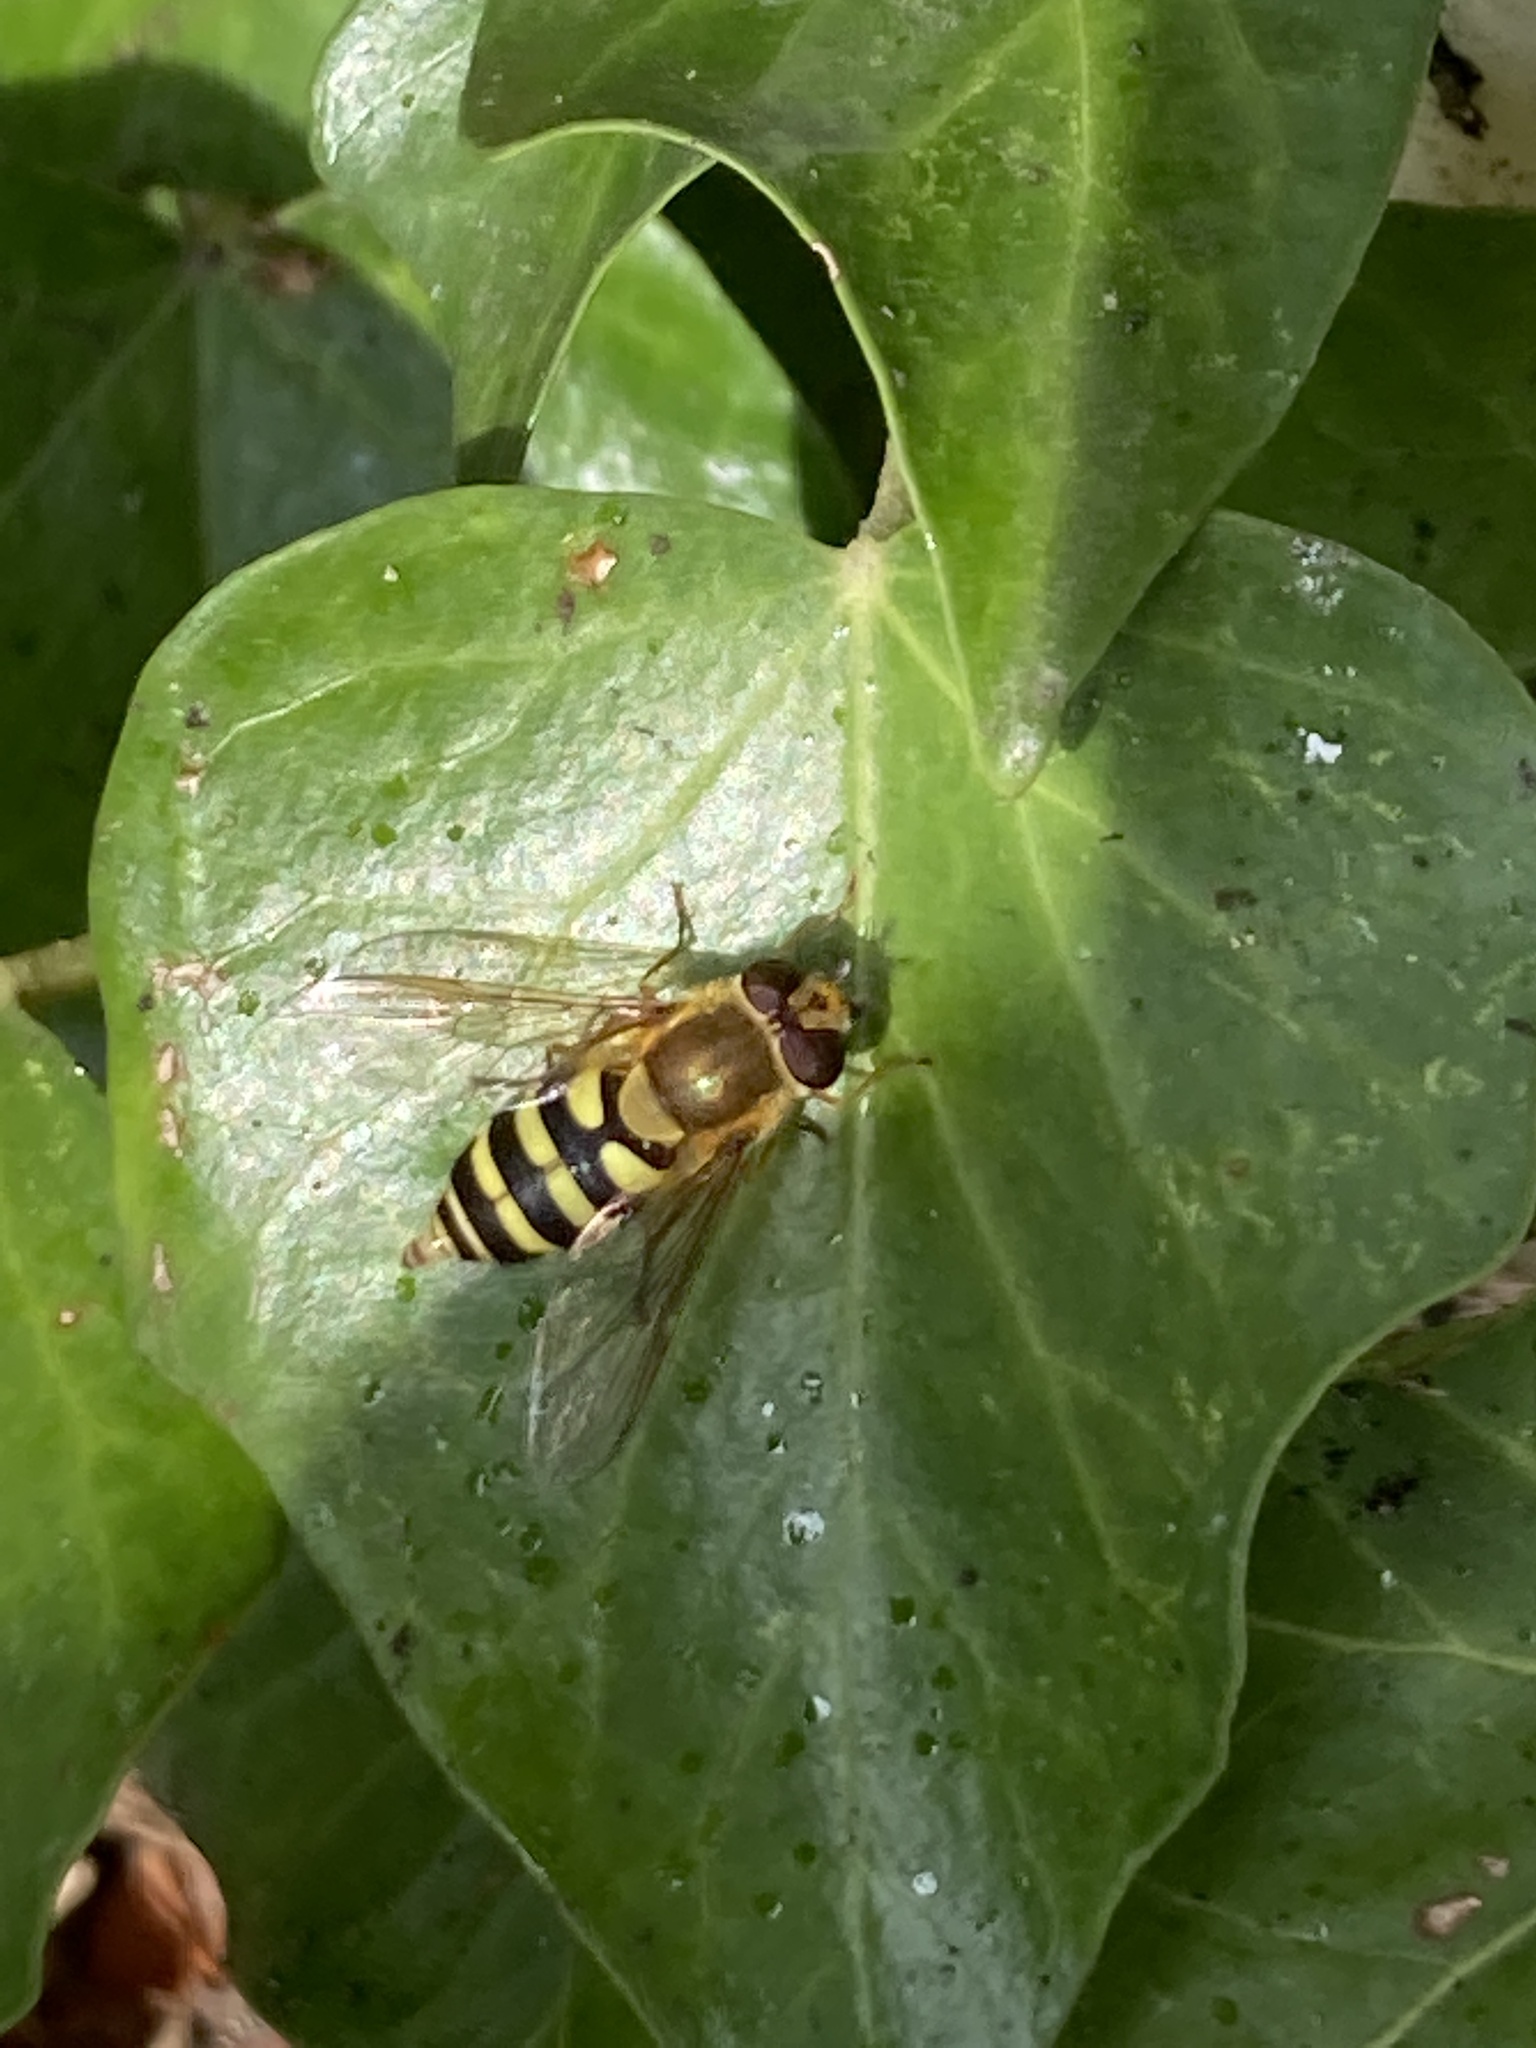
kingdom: Animalia
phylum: Arthropoda
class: Insecta
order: Diptera
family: Syrphidae
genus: Syrphus
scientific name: Syrphus
